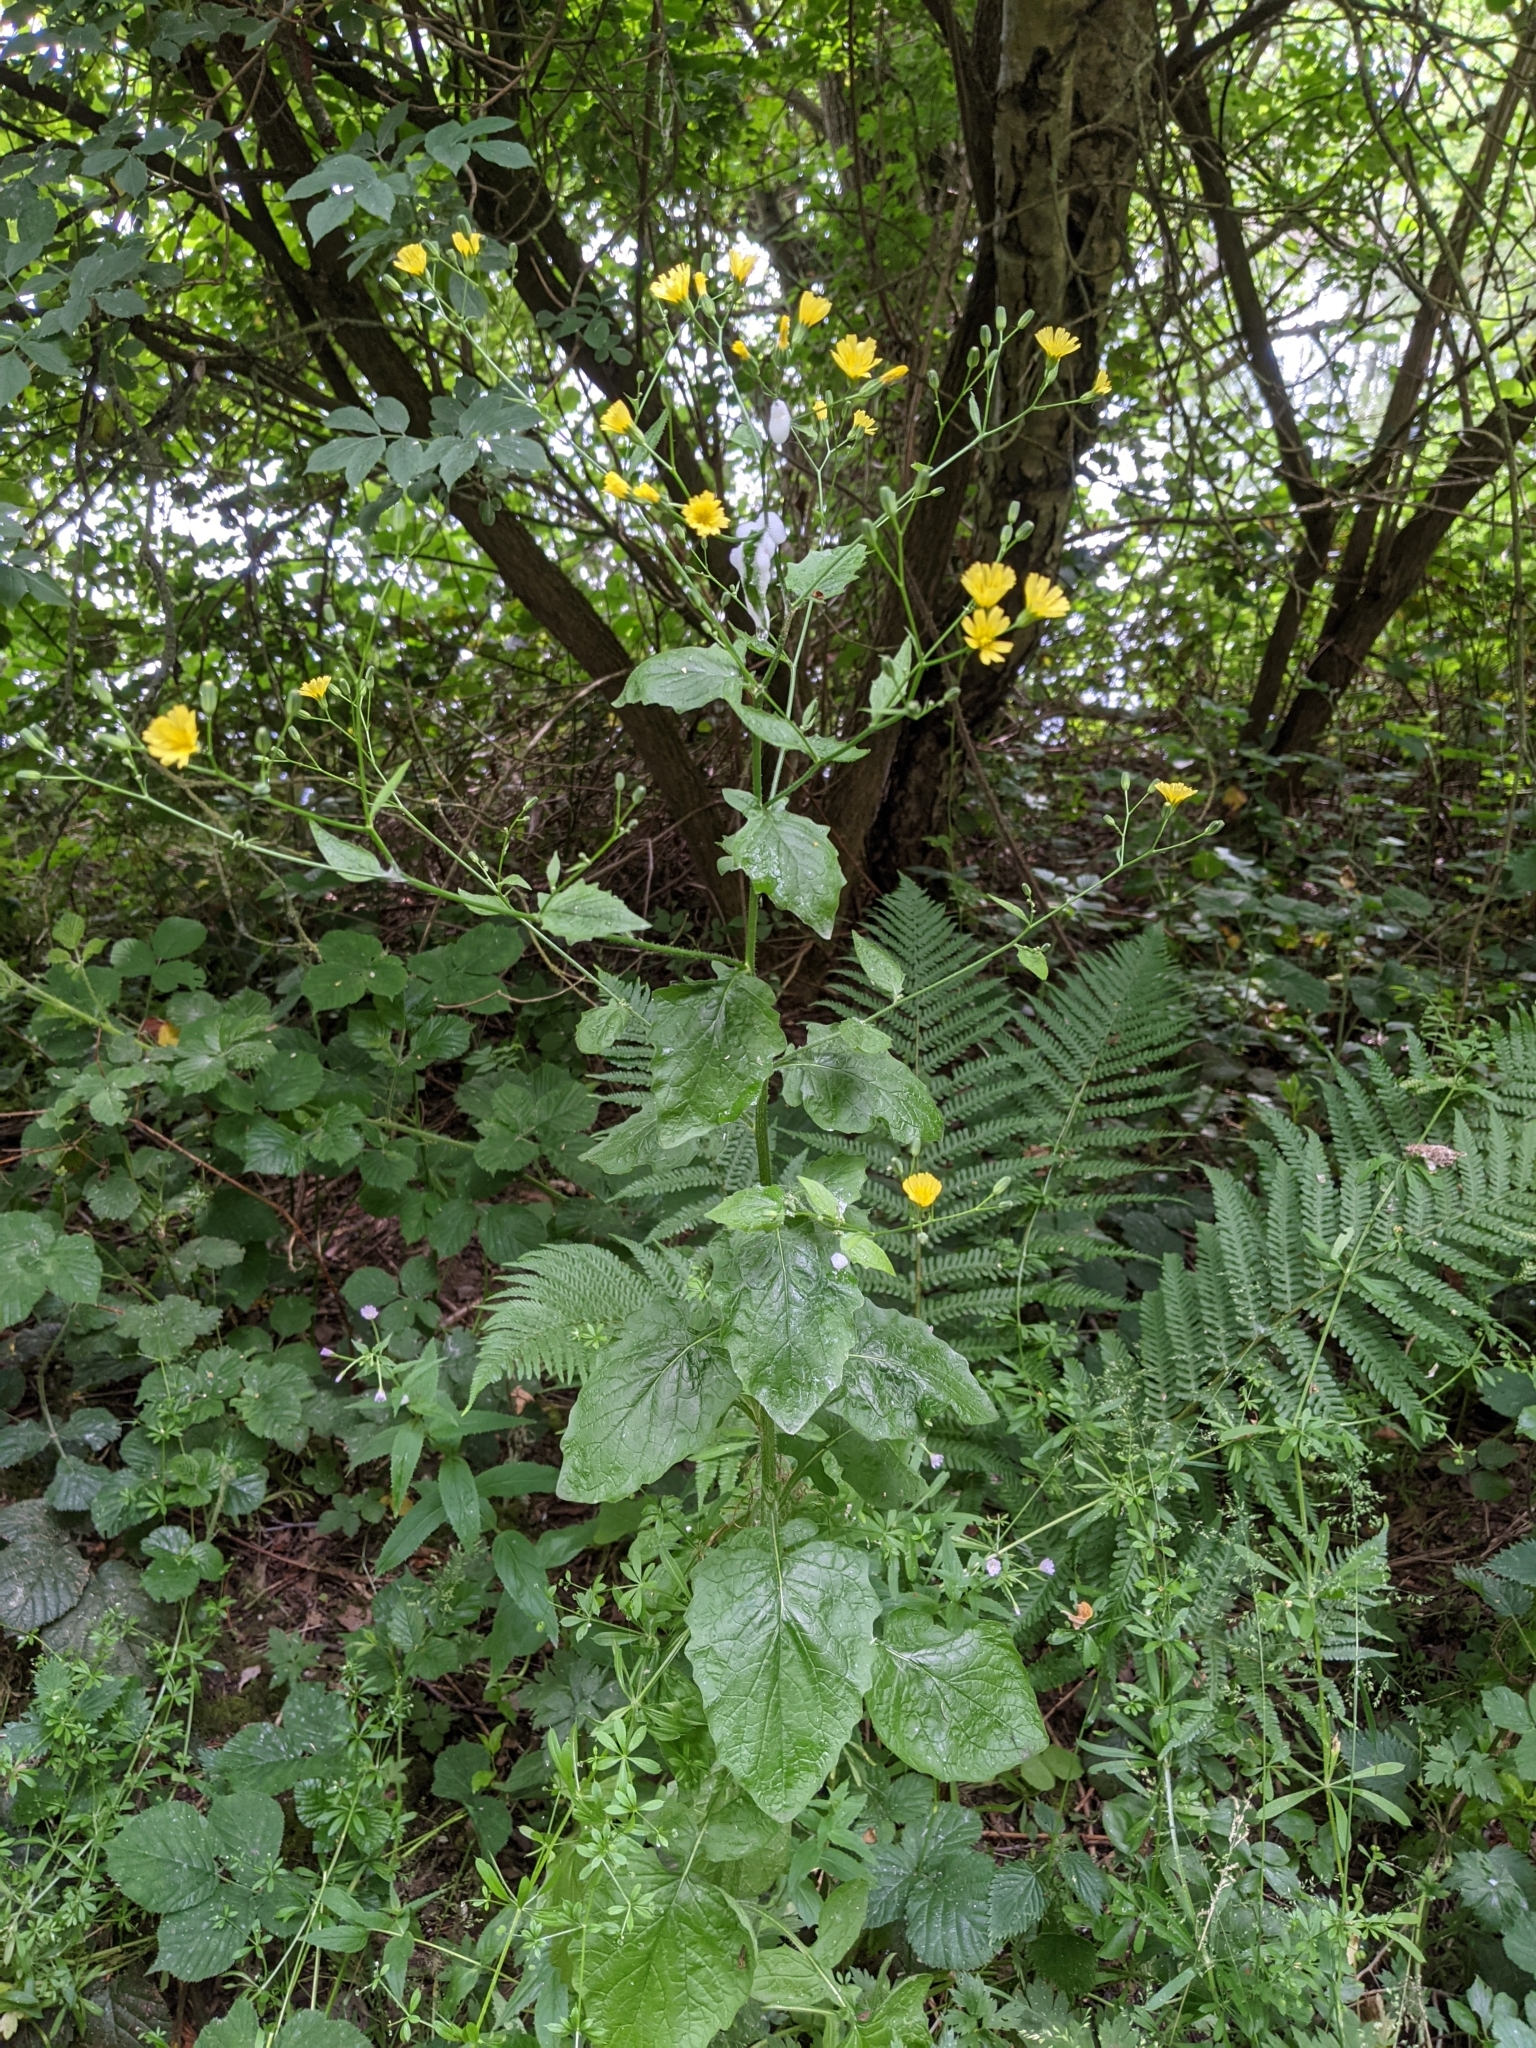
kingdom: Plantae
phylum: Tracheophyta
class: Magnoliopsida
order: Asterales
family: Asteraceae
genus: Lapsana
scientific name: Lapsana communis
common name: Nipplewort
